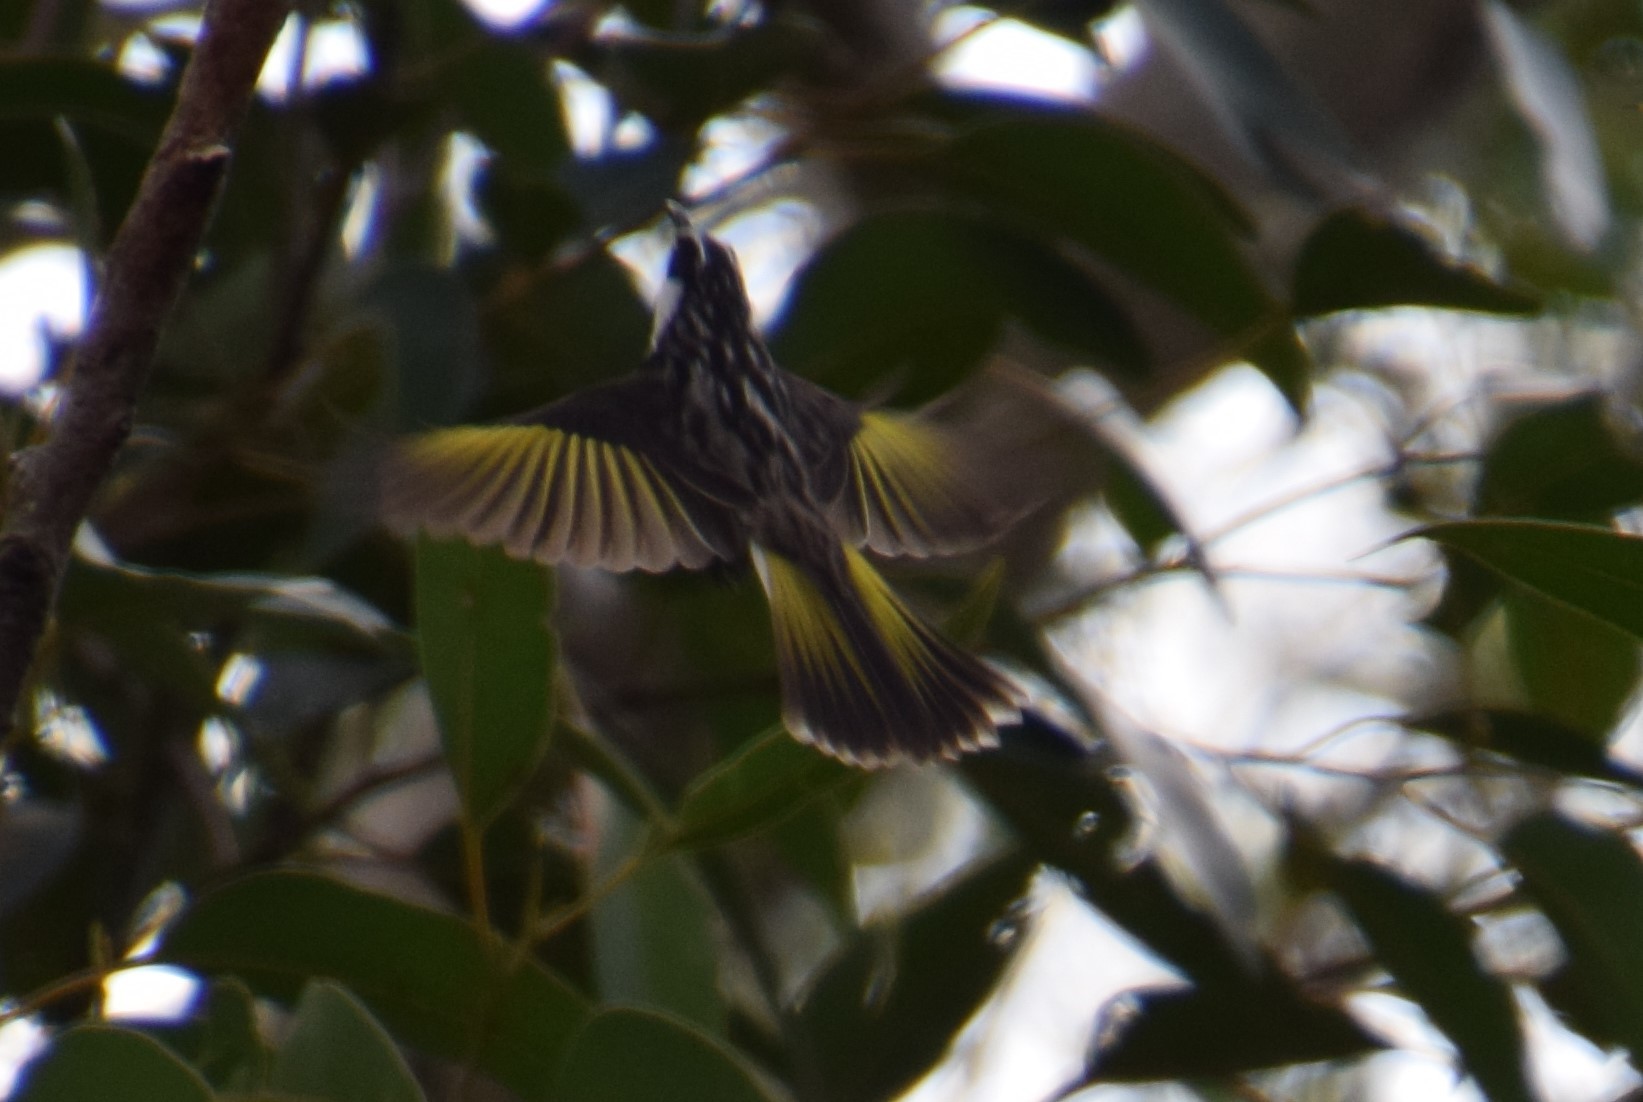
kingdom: Animalia
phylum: Chordata
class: Aves
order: Passeriformes
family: Meliphagidae
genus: Phylidonyris
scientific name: Phylidonyris niger
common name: White-cheeked honeyeater
